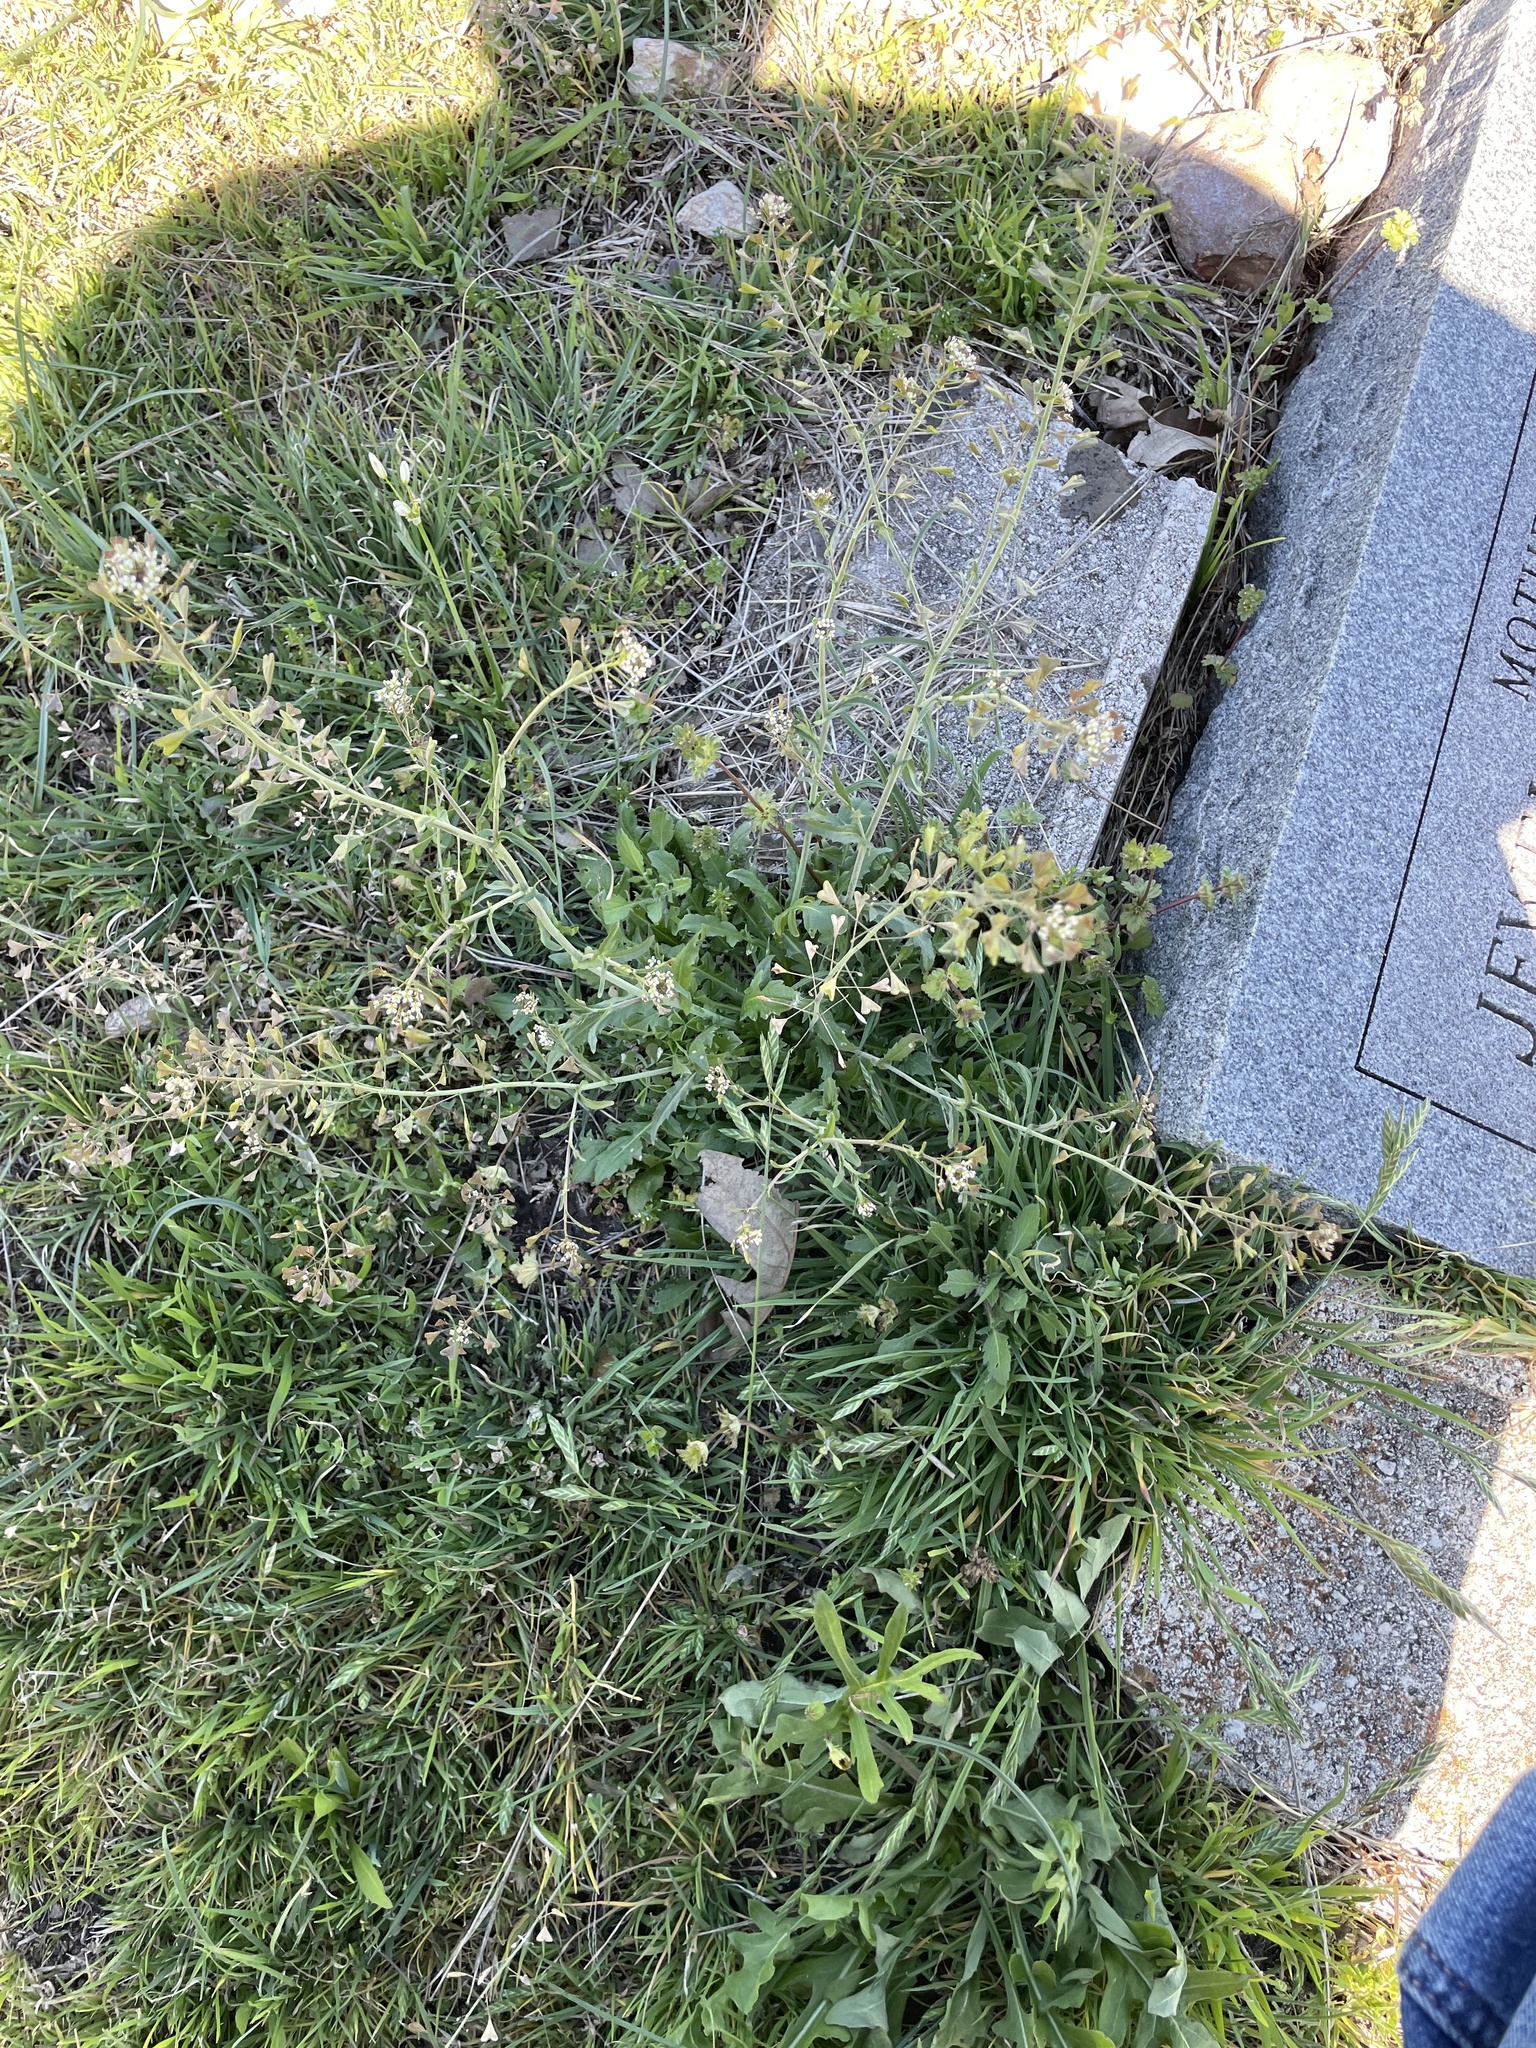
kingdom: Plantae
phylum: Tracheophyta
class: Magnoliopsida
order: Brassicales
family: Brassicaceae
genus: Capsella
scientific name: Capsella bursa-pastoris
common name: Shepherd's purse
